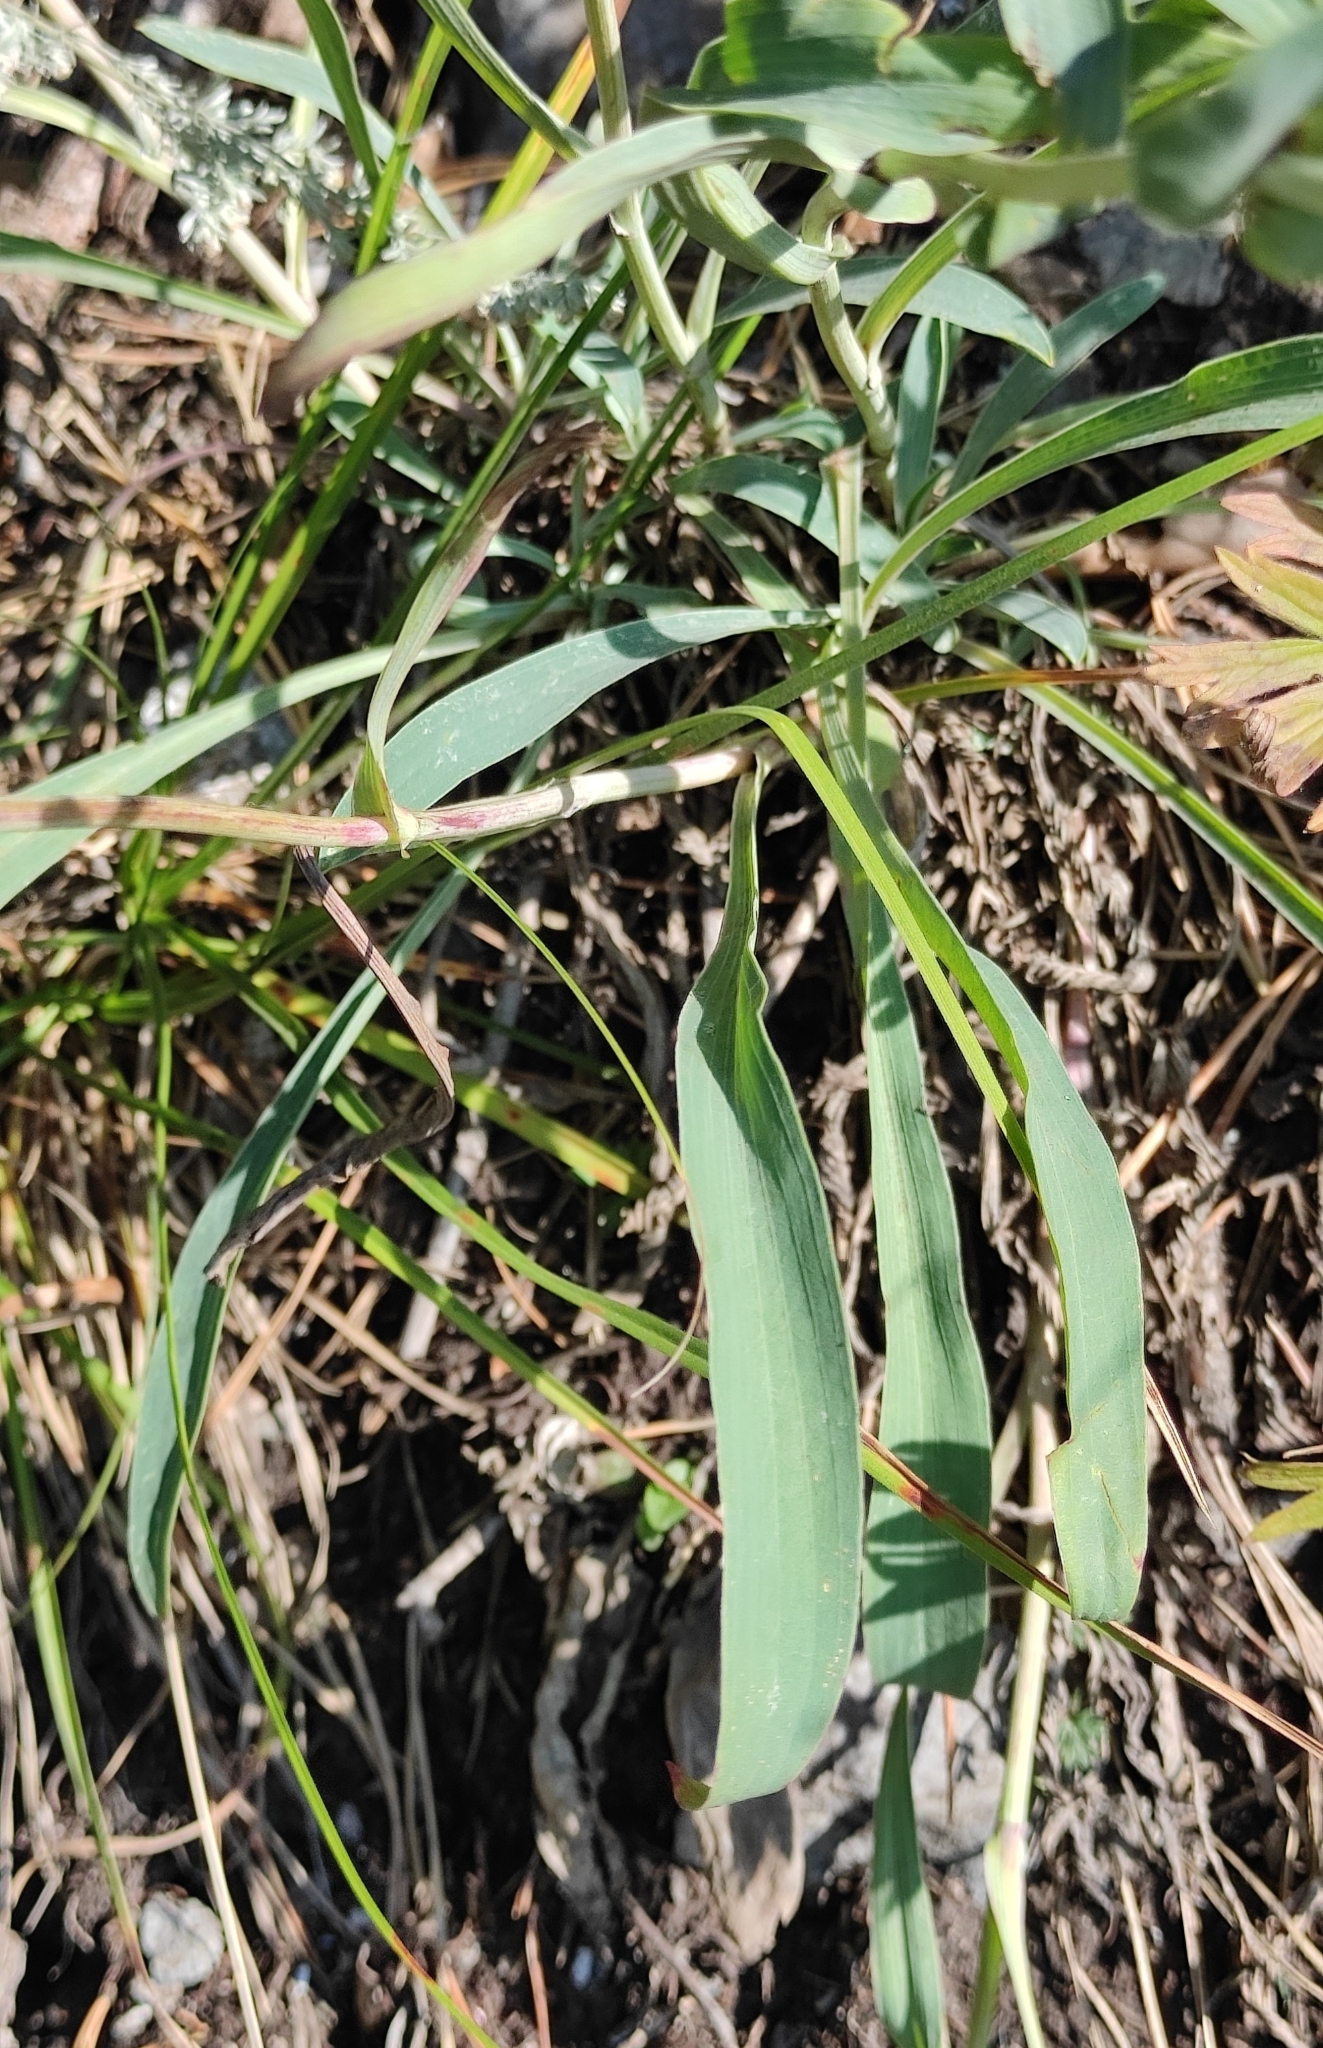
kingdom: Plantae
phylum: Tracheophyta
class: Magnoliopsida
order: Apiales
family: Apiaceae
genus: Bupleurum
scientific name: Bupleurum multinerve
